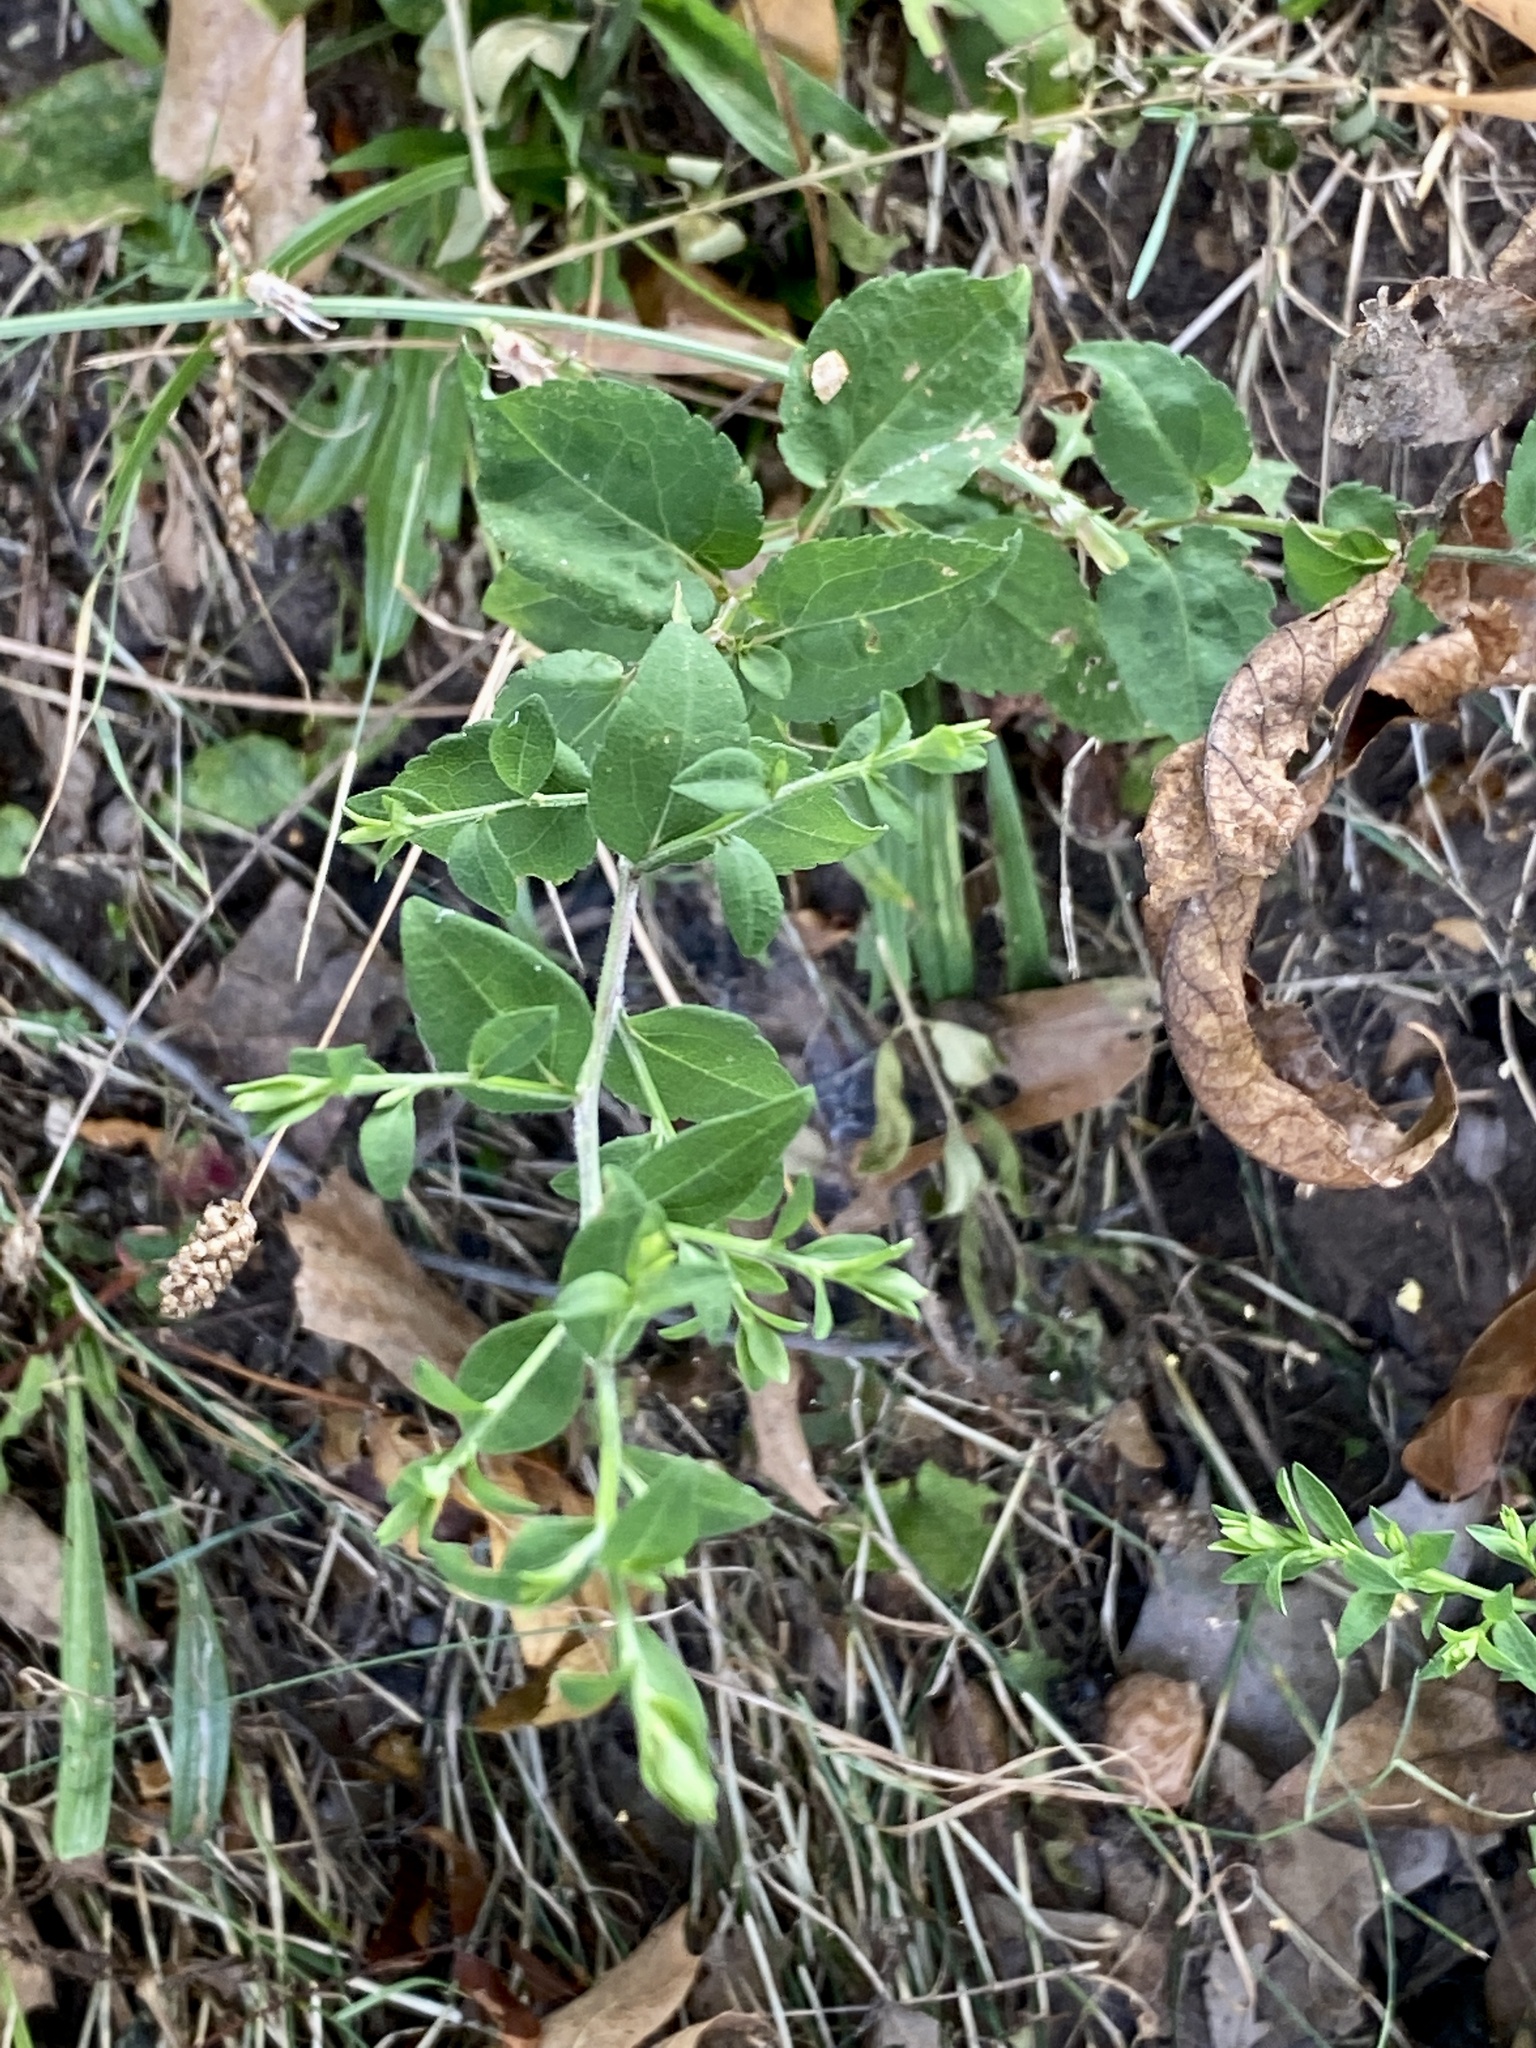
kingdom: Plantae
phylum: Tracheophyta
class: Magnoliopsida
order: Asterales
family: Asteraceae
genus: Symphyotrichum
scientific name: Symphyotrichum cordifolium
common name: Beeweed
